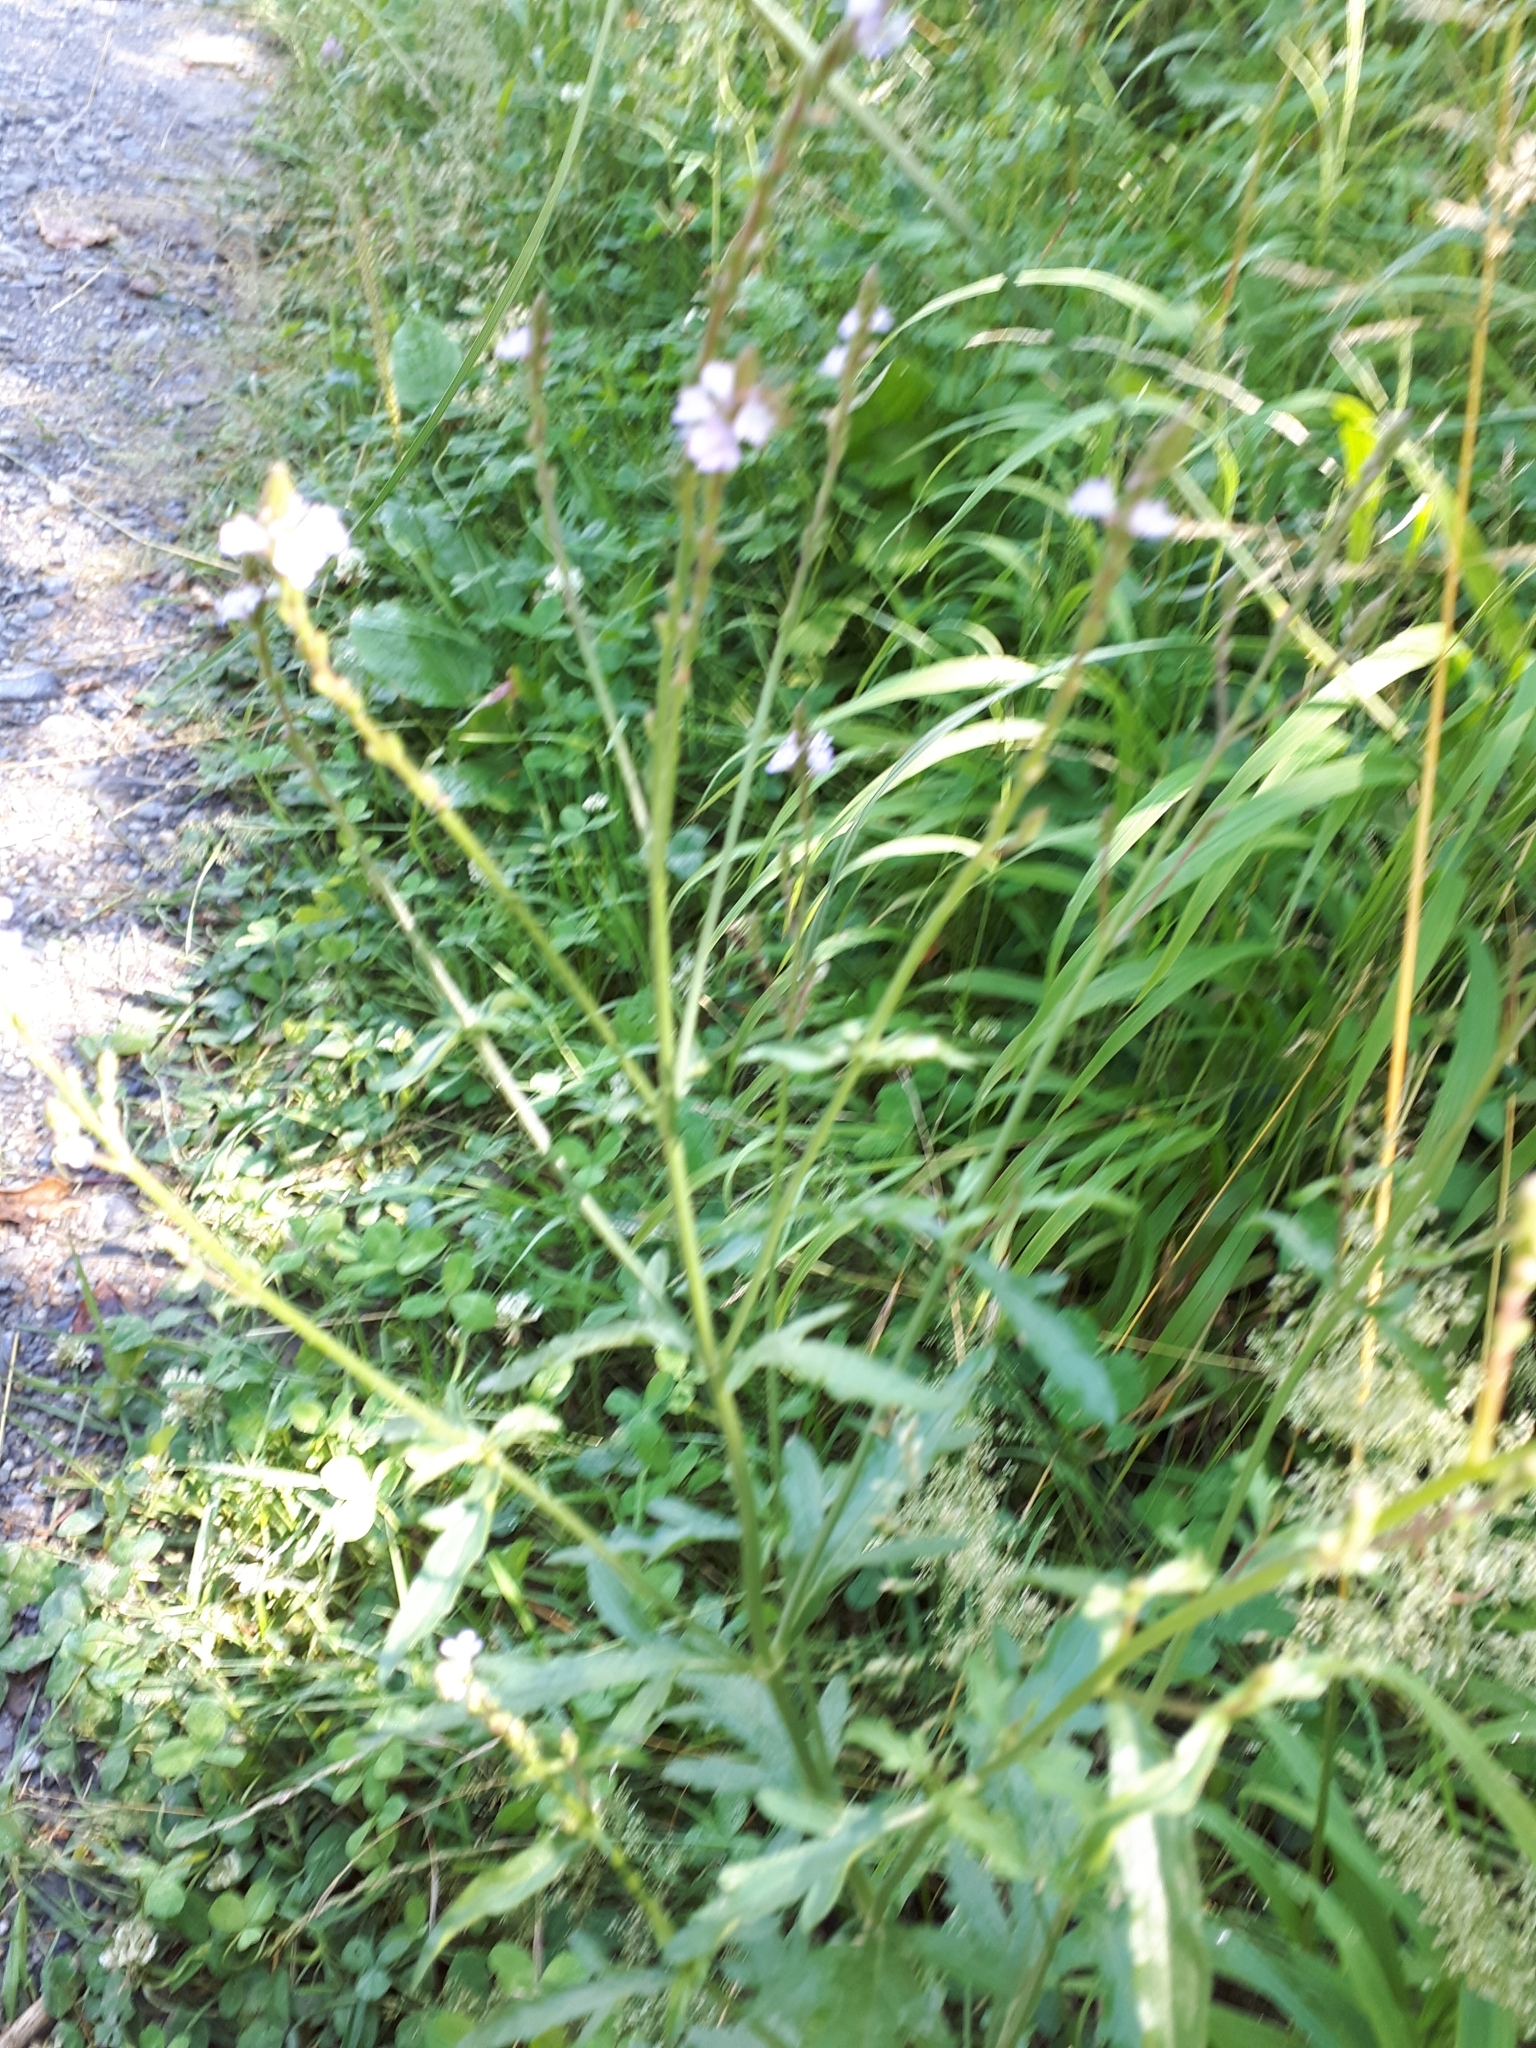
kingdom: Plantae
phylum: Tracheophyta
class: Magnoliopsida
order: Lamiales
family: Verbenaceae
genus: Verbena
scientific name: Verbena officinalis
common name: Vervain
